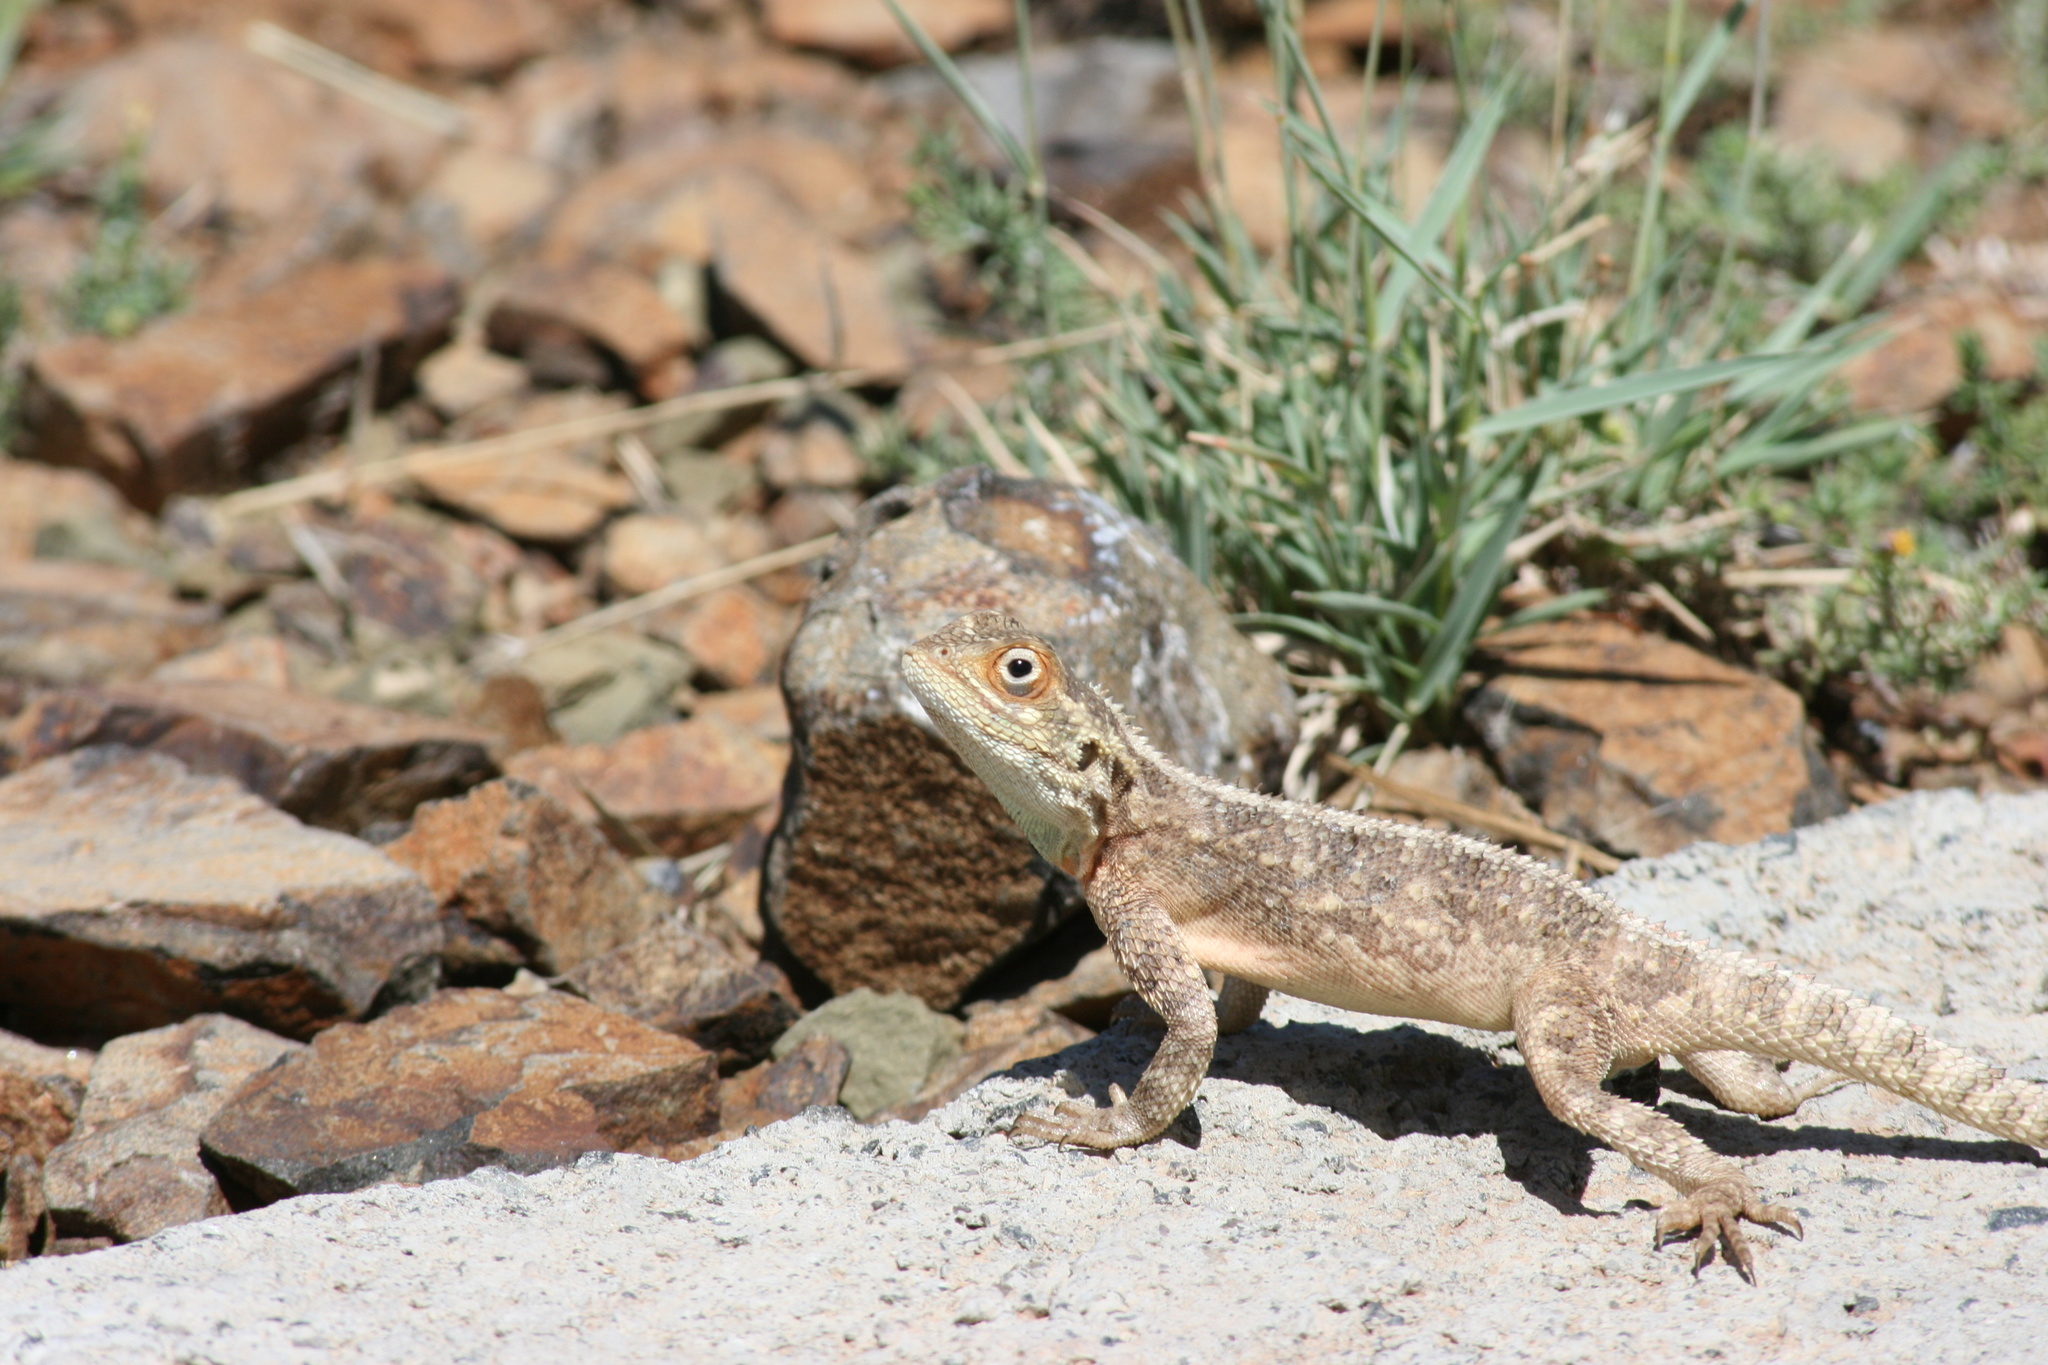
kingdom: Animalia
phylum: Chordata
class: Squamata
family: Agamidae
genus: Agama
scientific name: Agama aculeata
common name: Common ground agama
